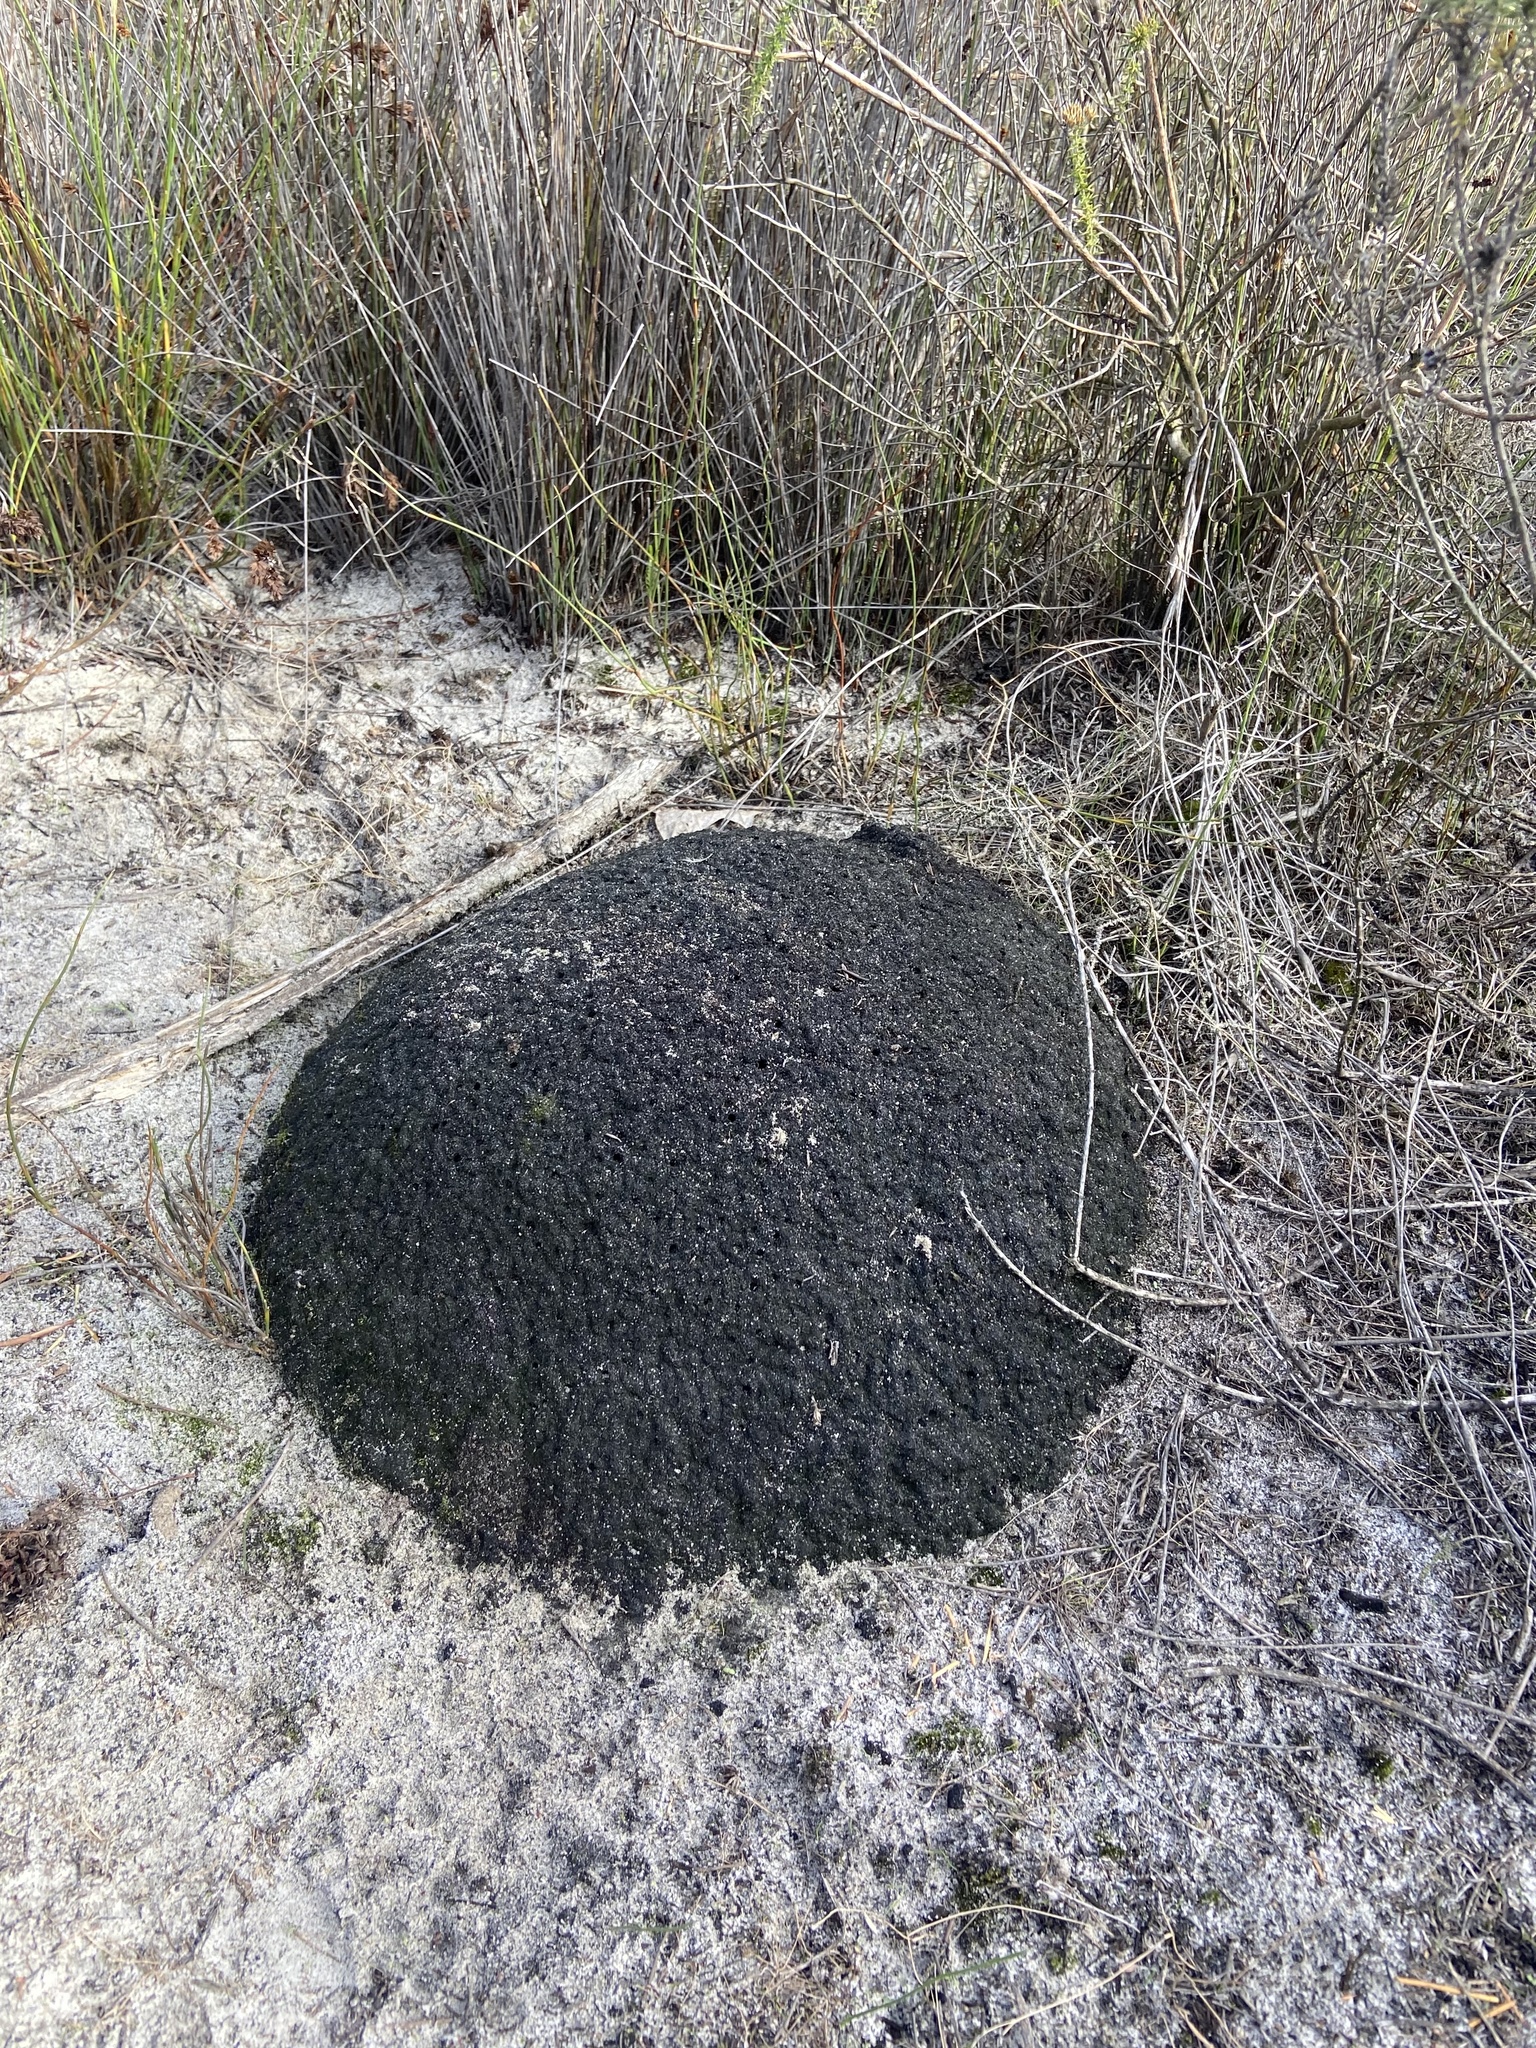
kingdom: Animalia
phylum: Arthropoda
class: Insecta
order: Blattodea
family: Termitidae
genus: Amitermes
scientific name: Amitermes hastatus
